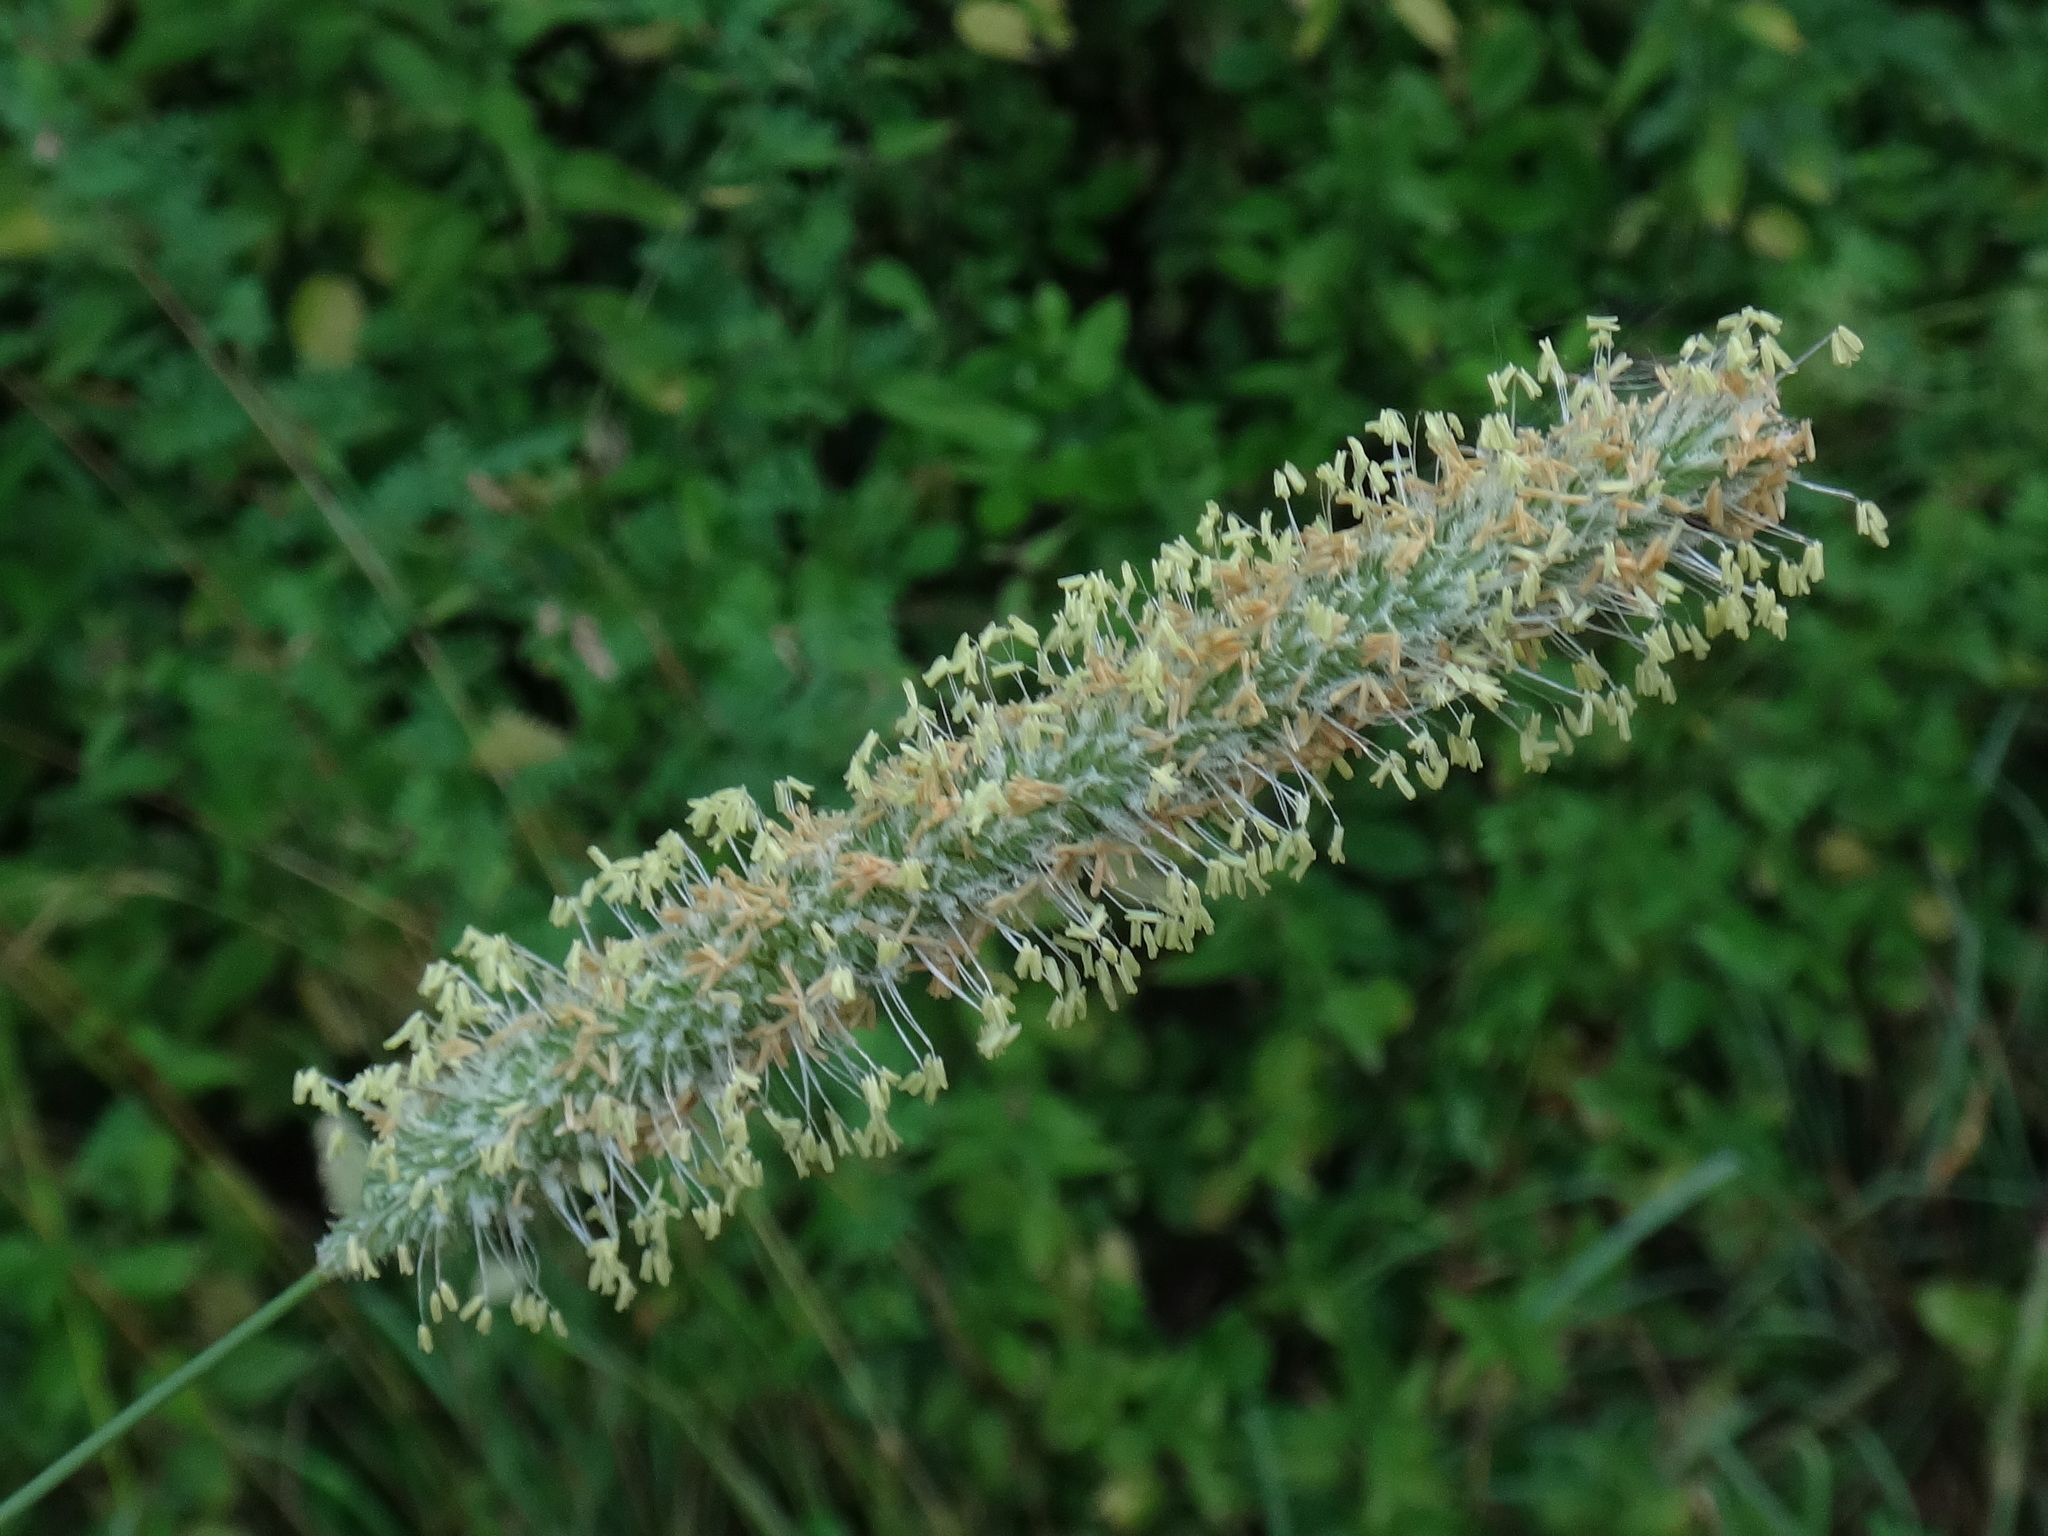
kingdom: Plantae
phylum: Tracheophyta
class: Liliopsida
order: Poales
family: Poaceae
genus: Phleum
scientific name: Phleum pratense
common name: Timothy grass
